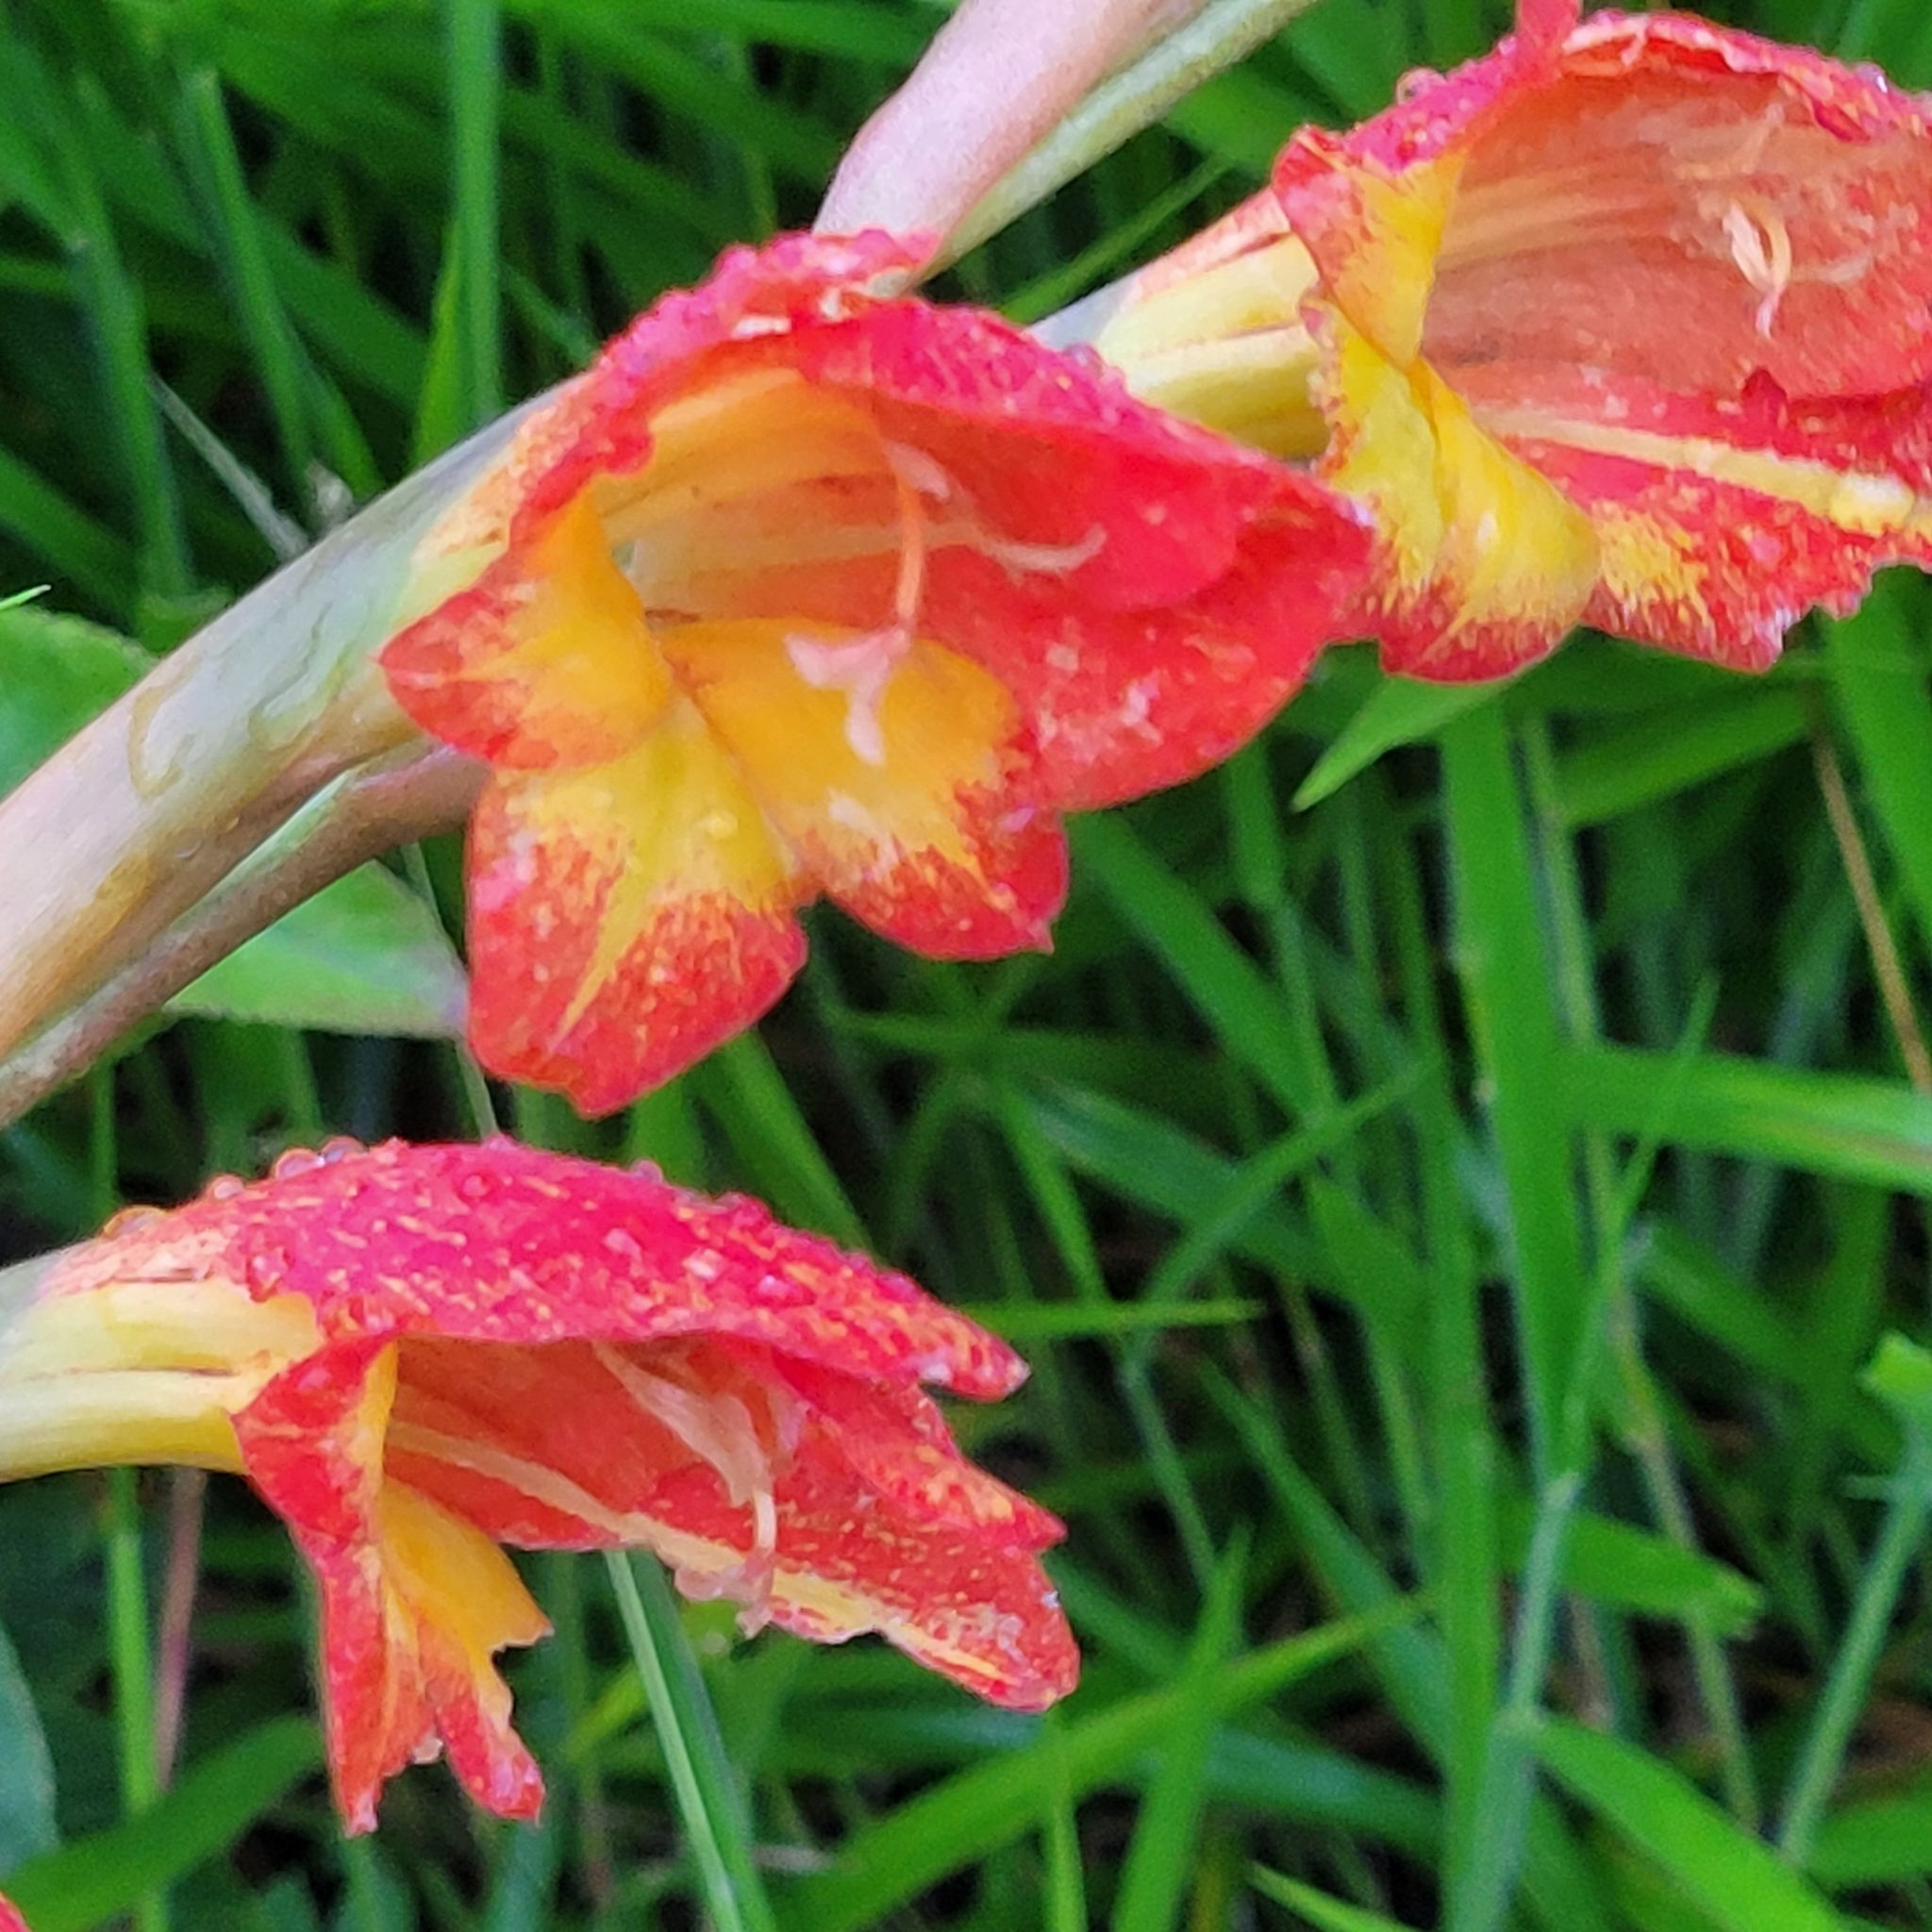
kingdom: Plantae
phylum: Tracheophyta
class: Liliopsida
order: Asparagales
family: Iridaceae
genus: Gladiolus
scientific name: Gladiolus dalenii
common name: Cornflag
